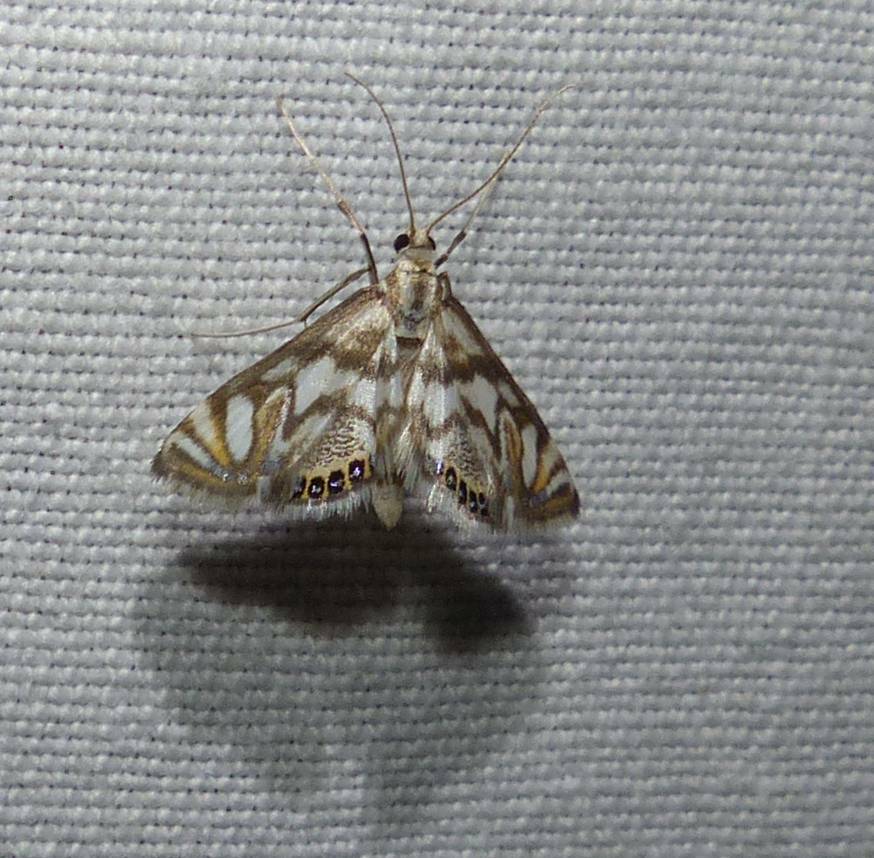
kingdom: Animalia
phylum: Arthropoda
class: Insecta
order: Lepidoptera
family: Crambidae
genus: Neocataclysta
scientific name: Neocataclysta magnificalis
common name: Scrollwork pyralid moth
